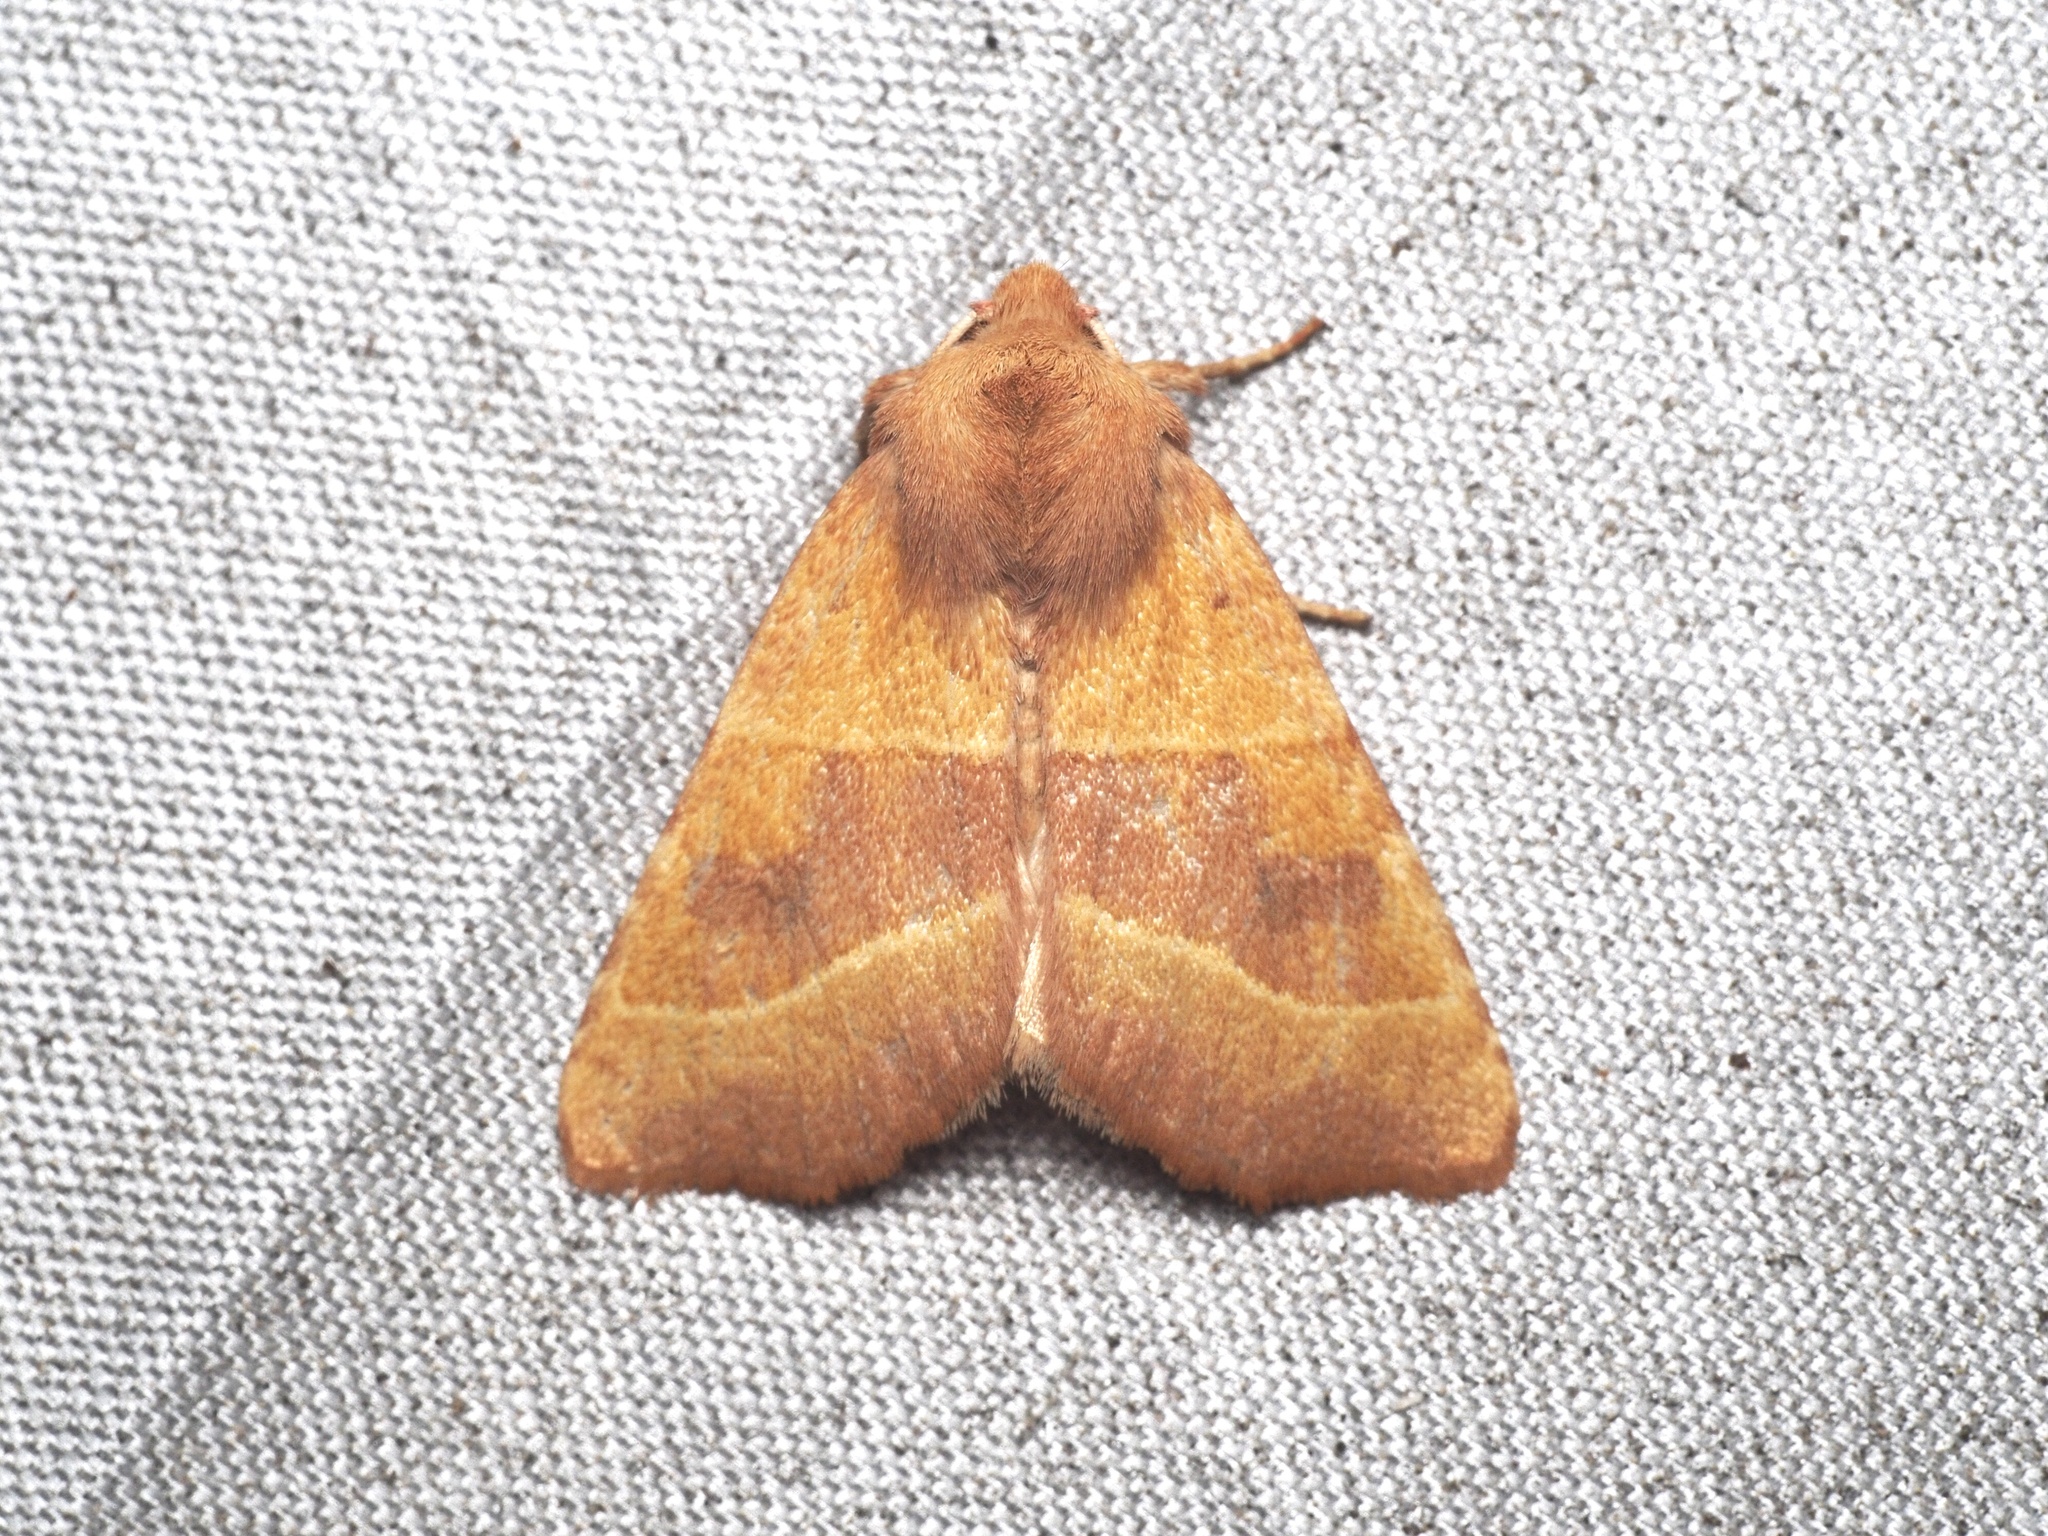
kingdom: Animalia
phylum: Arthropoda
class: Insecta
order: Lepidoptera
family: Noctuidae
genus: Atethmia
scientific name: Atethmia centrago
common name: Centre-barred sallow
